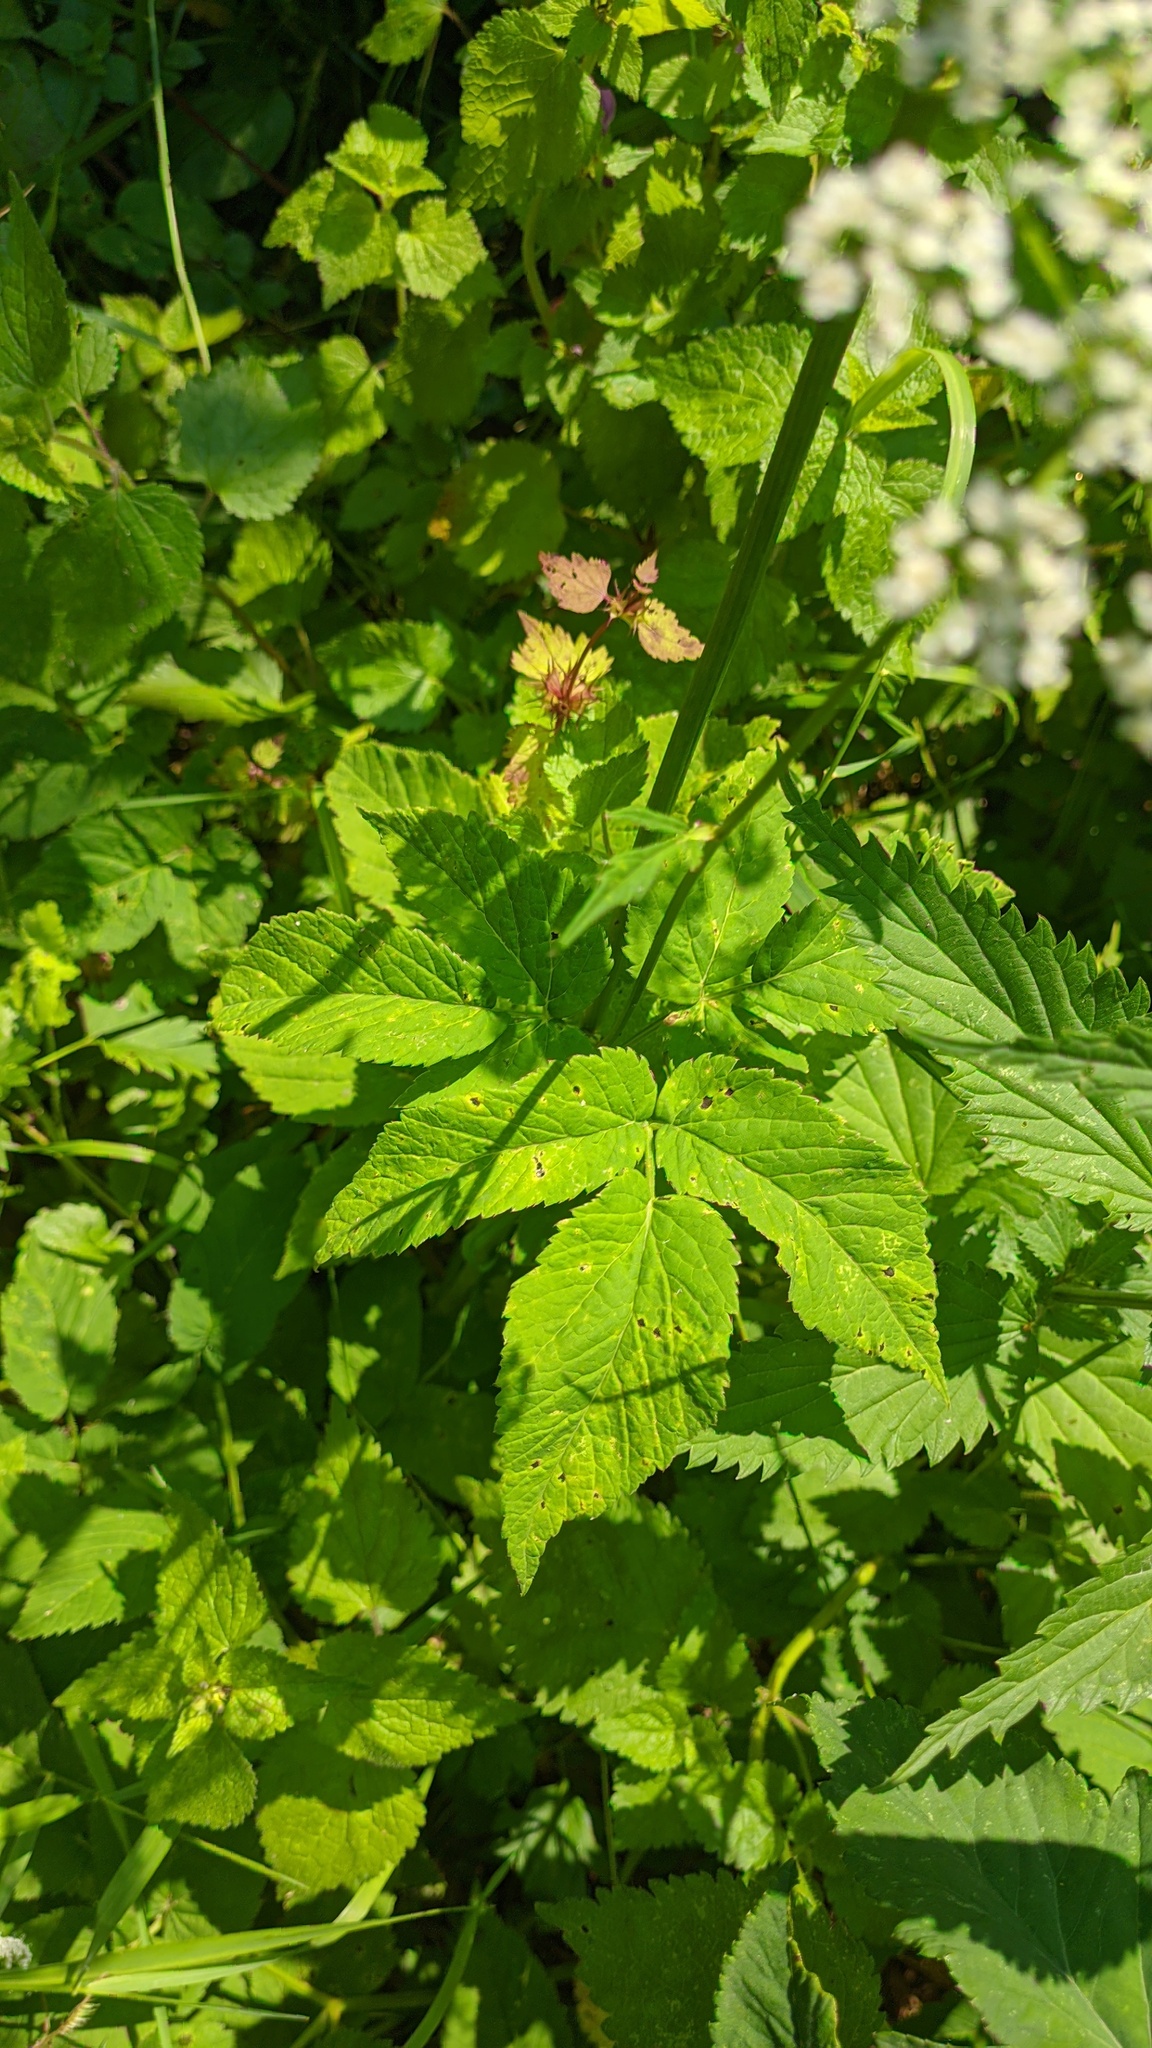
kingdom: Plantae
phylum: Tracheophyta
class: Magnoliopsida
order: Apiales
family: Apiaceae
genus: Aegopodium
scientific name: Aegopodium podagraria
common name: Ground-elder
